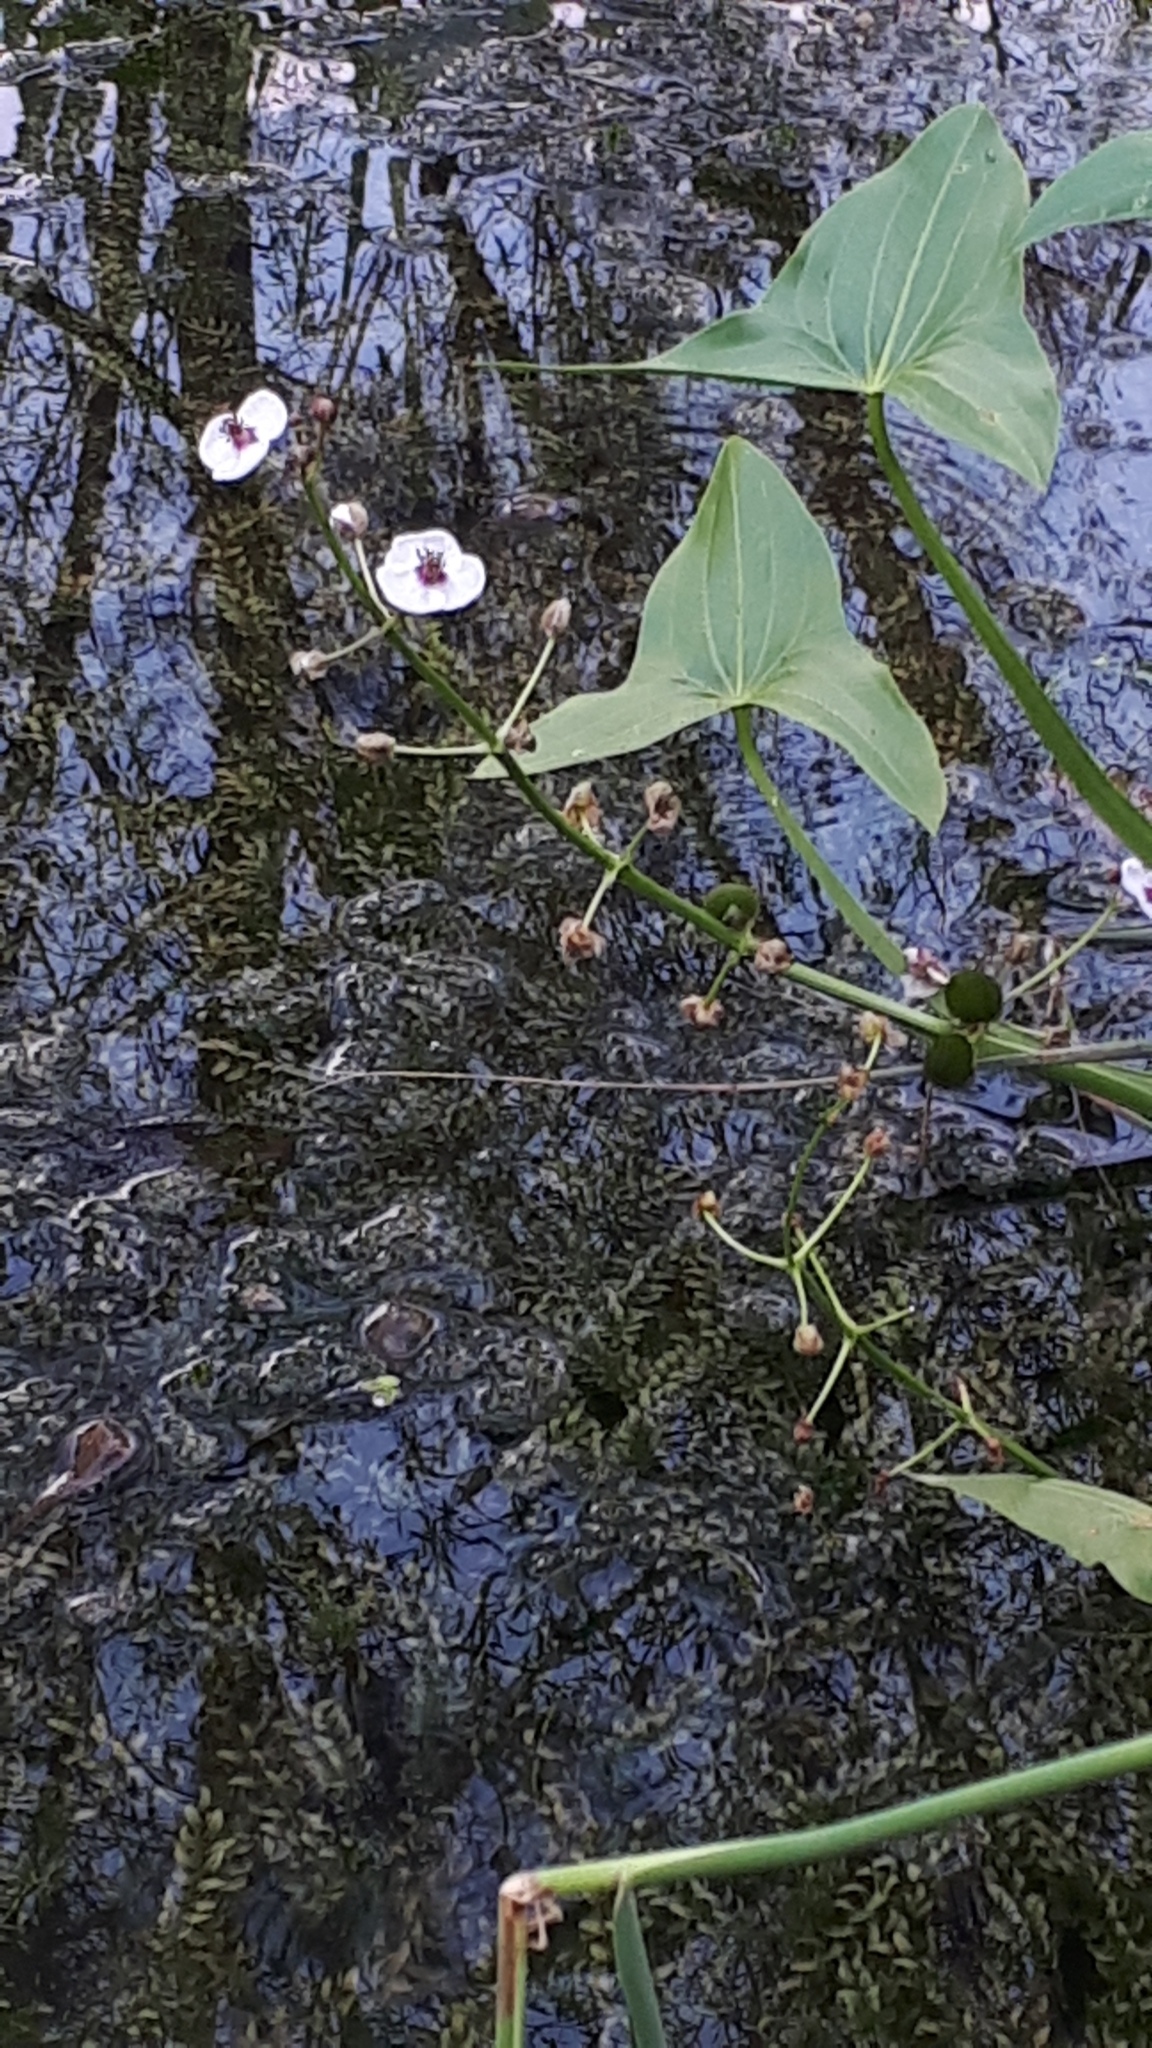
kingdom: Plantae
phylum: Tracheophyta
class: Liliopsida
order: Alismatales
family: Alismataceae
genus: Sagittaria
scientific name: Sagittaria sagittifolia
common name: Arrowhead
